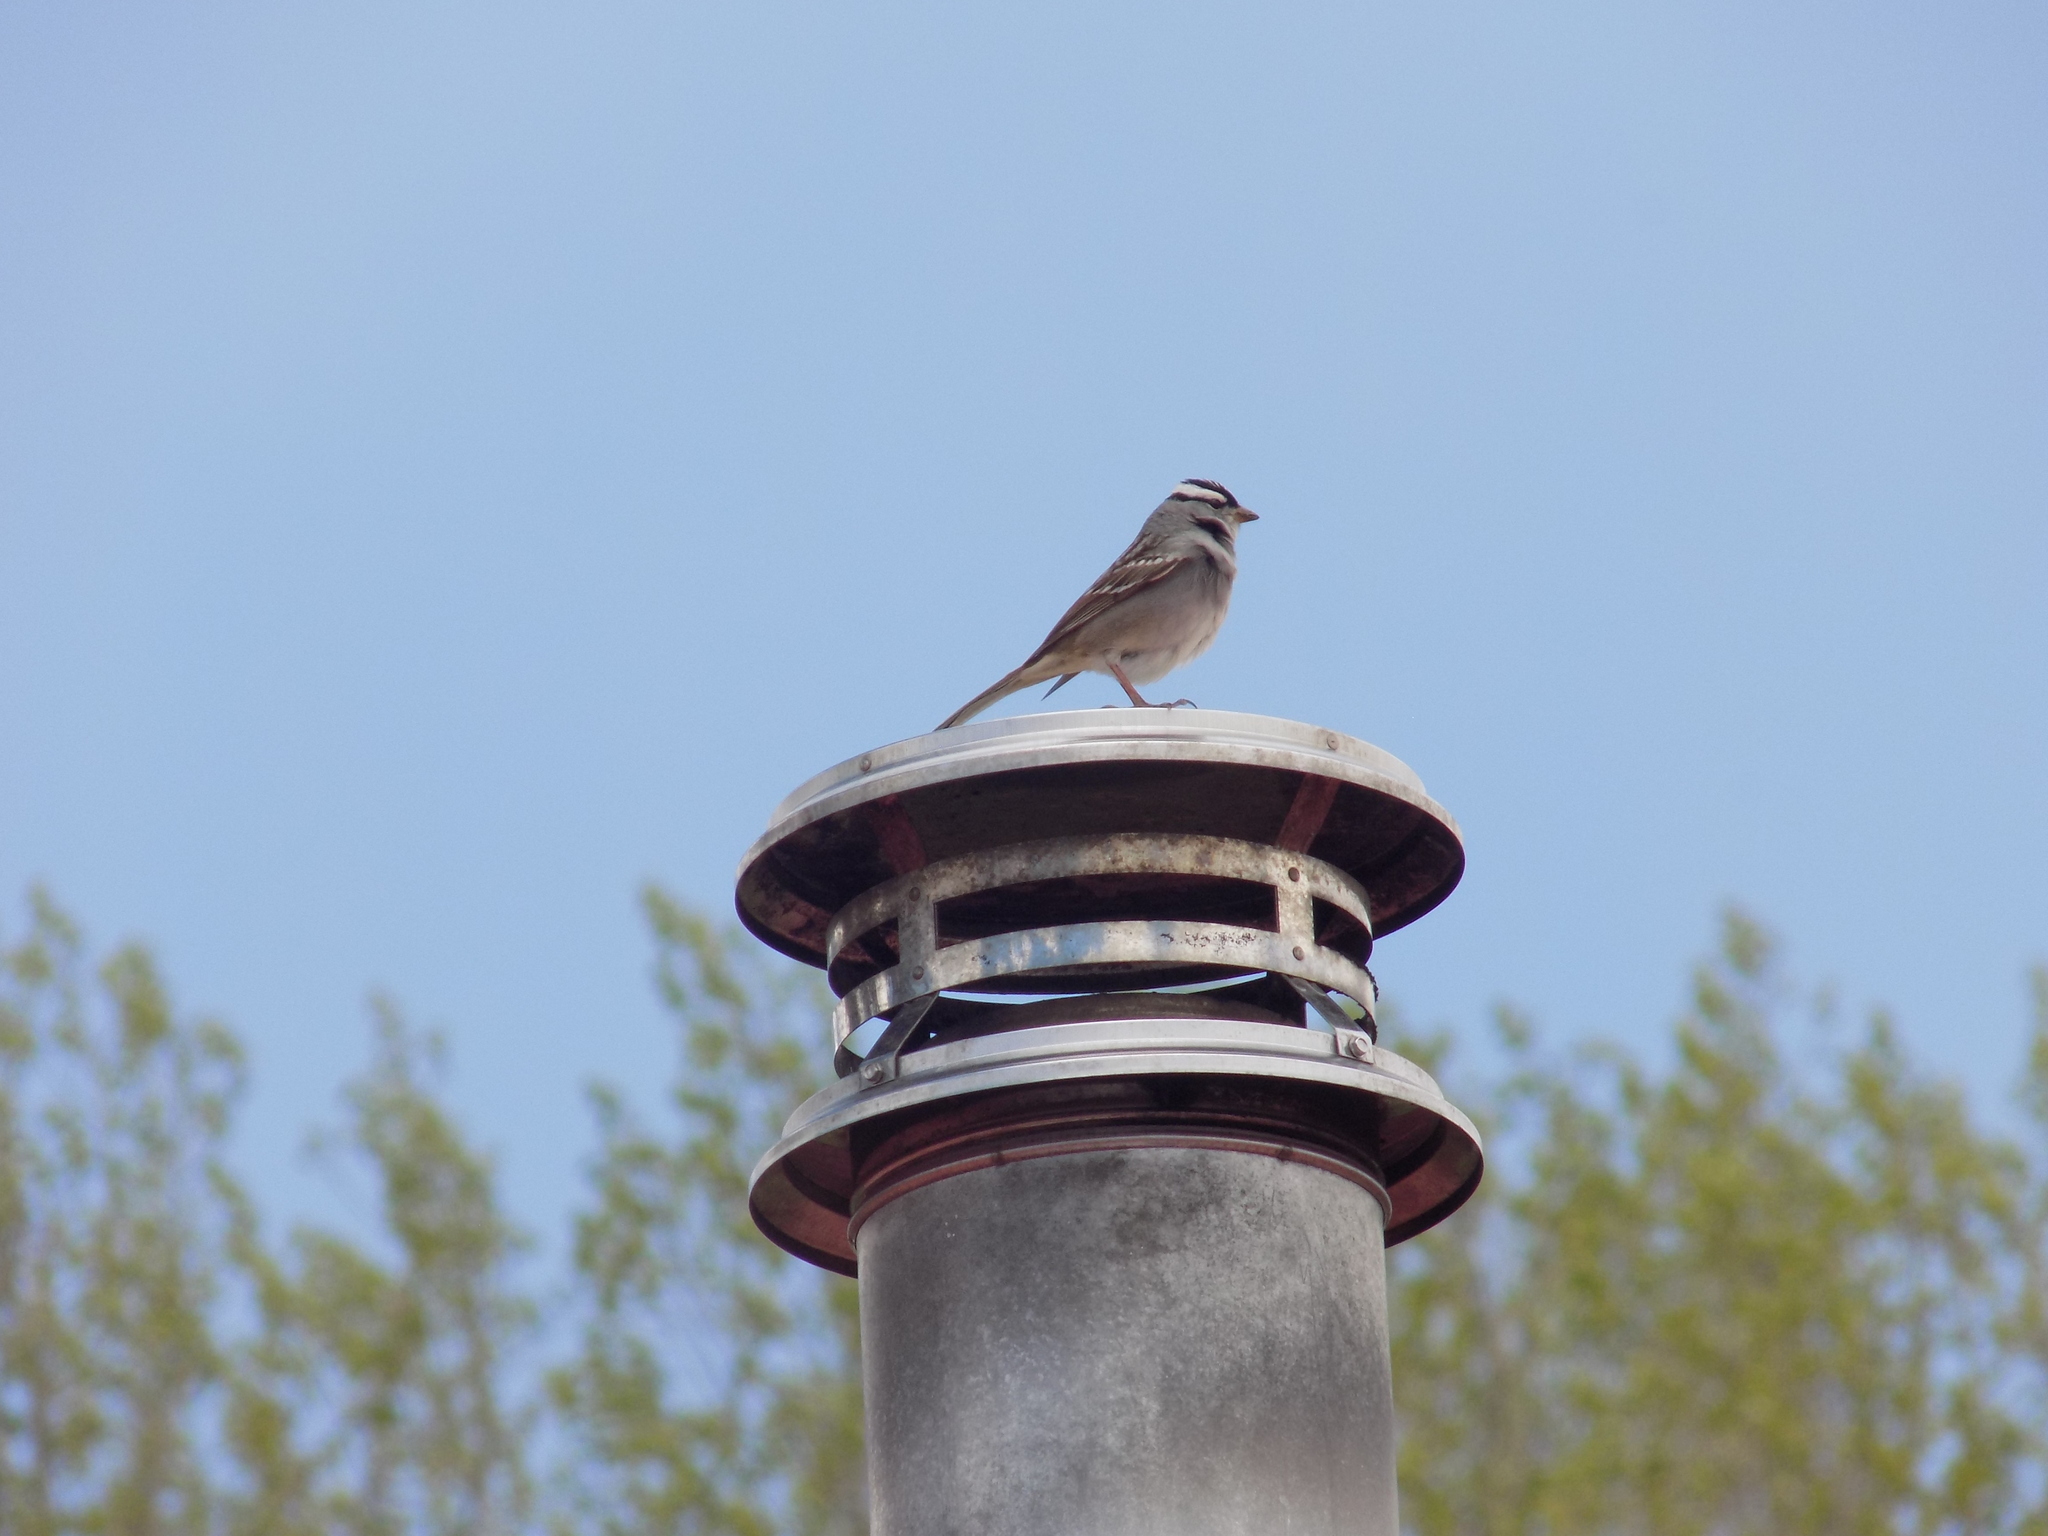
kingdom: Animalia
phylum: Chordata
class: Aves
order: Passeriformes
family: Passerellidae
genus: Zonotrichia
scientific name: Zonotrichia leucophrys
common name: White-crowned sparrow
